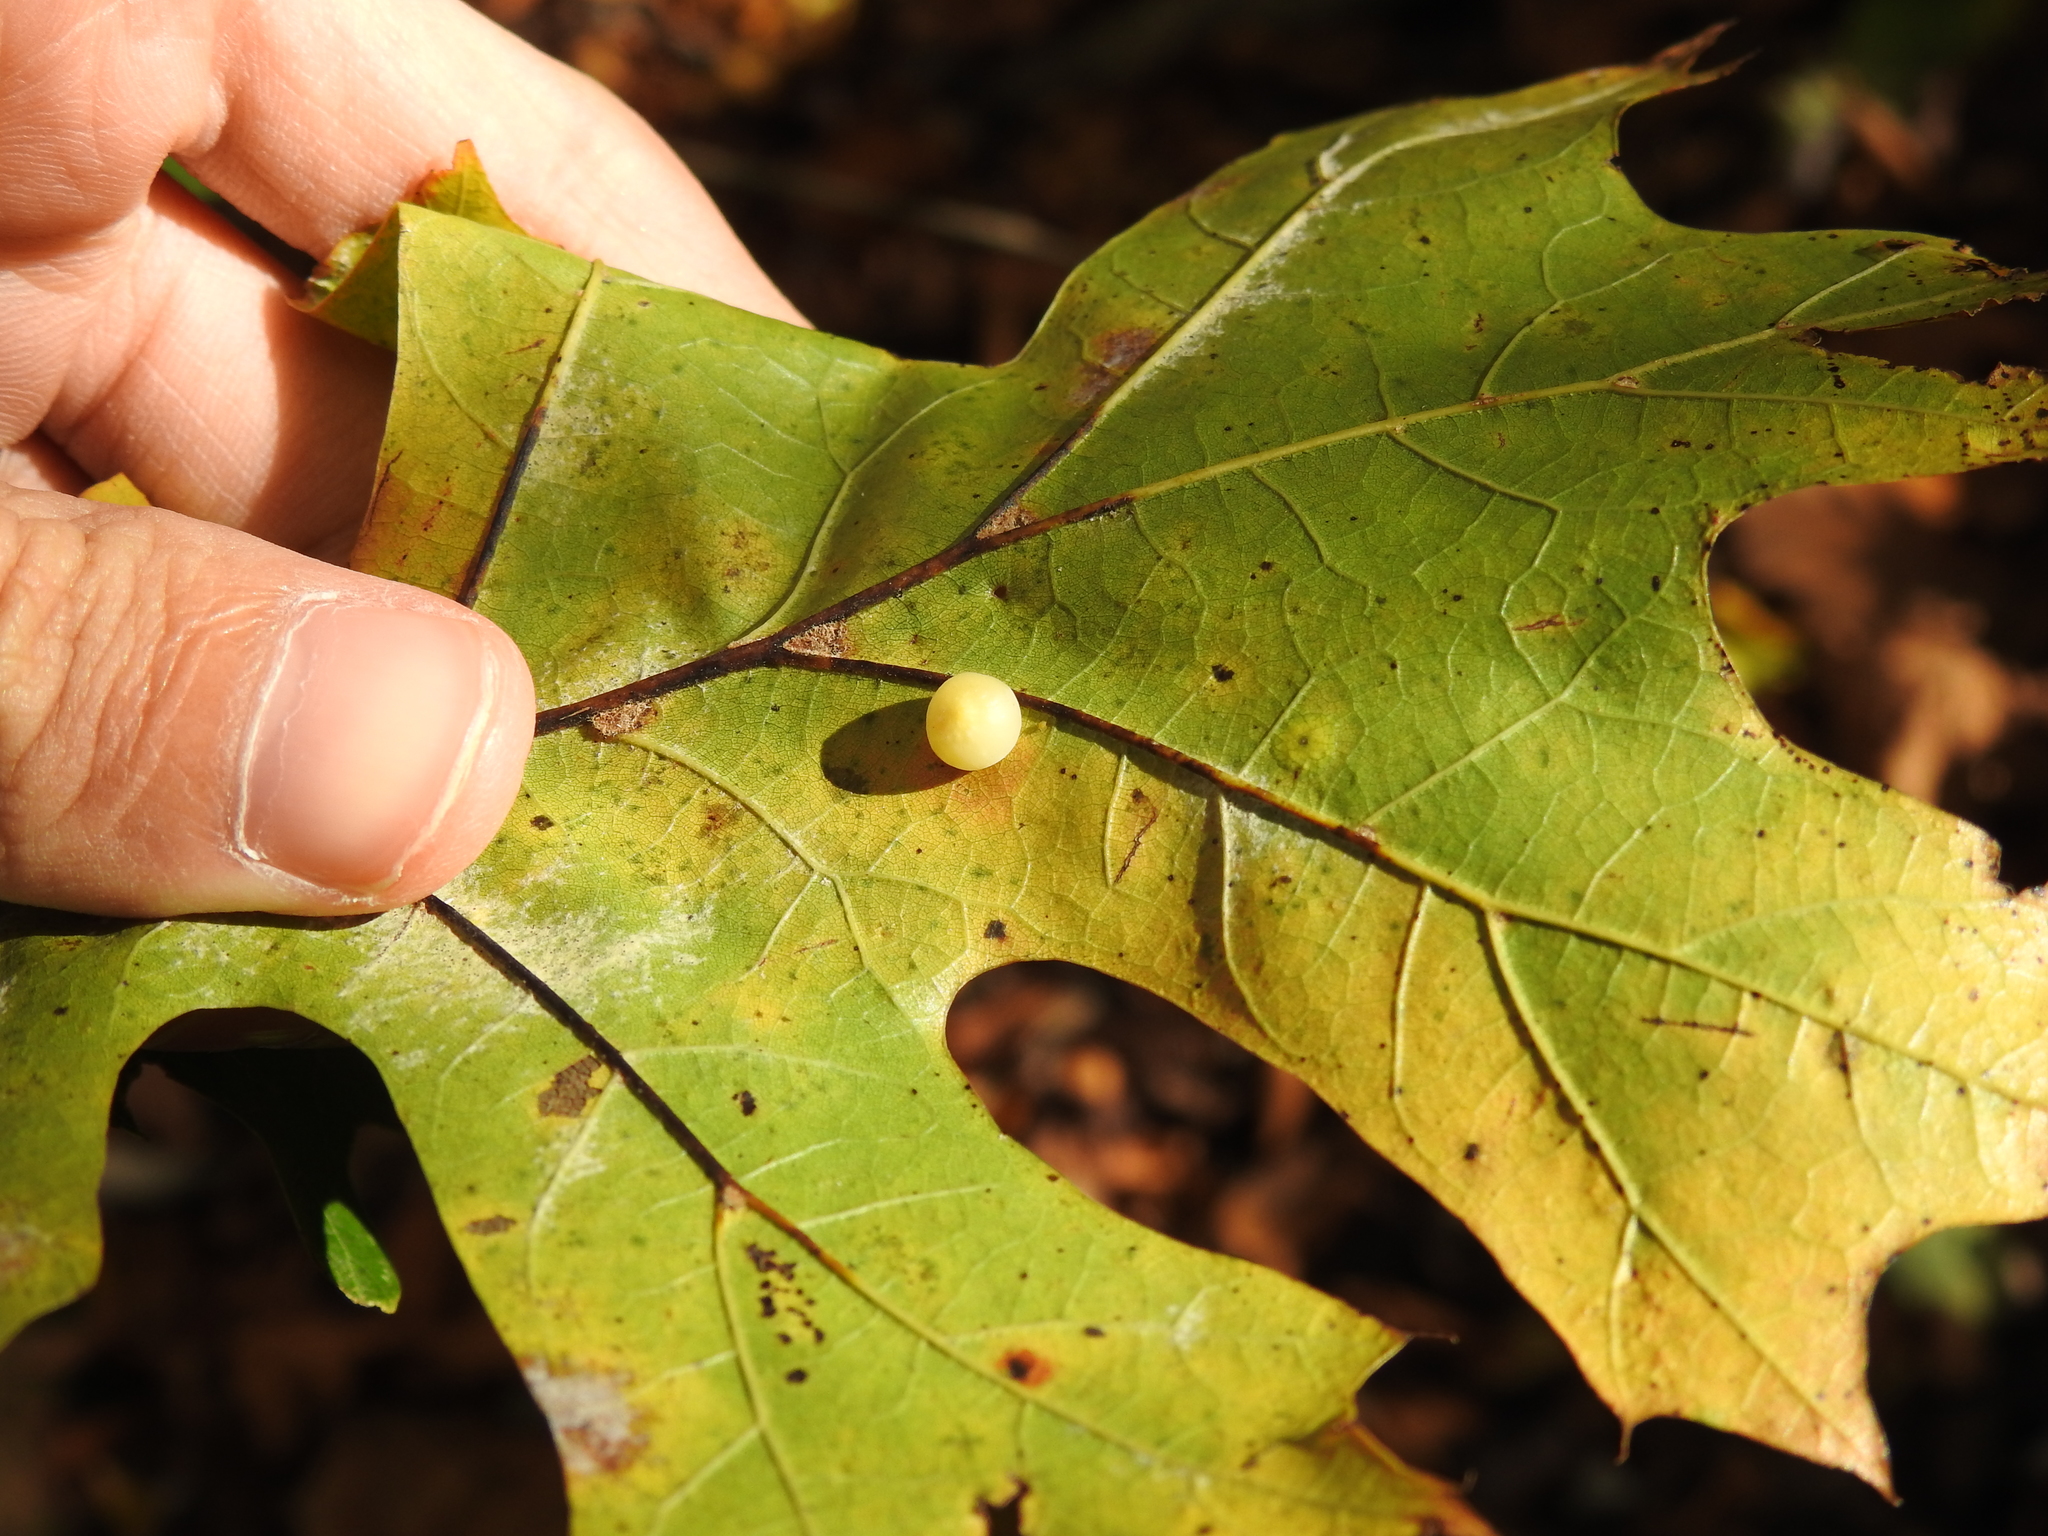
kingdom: Animalia
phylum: Arthropoda
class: Insecta
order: Hymenoptera
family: Cynipidae
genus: Zopheroteras
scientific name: Zopheroteras
